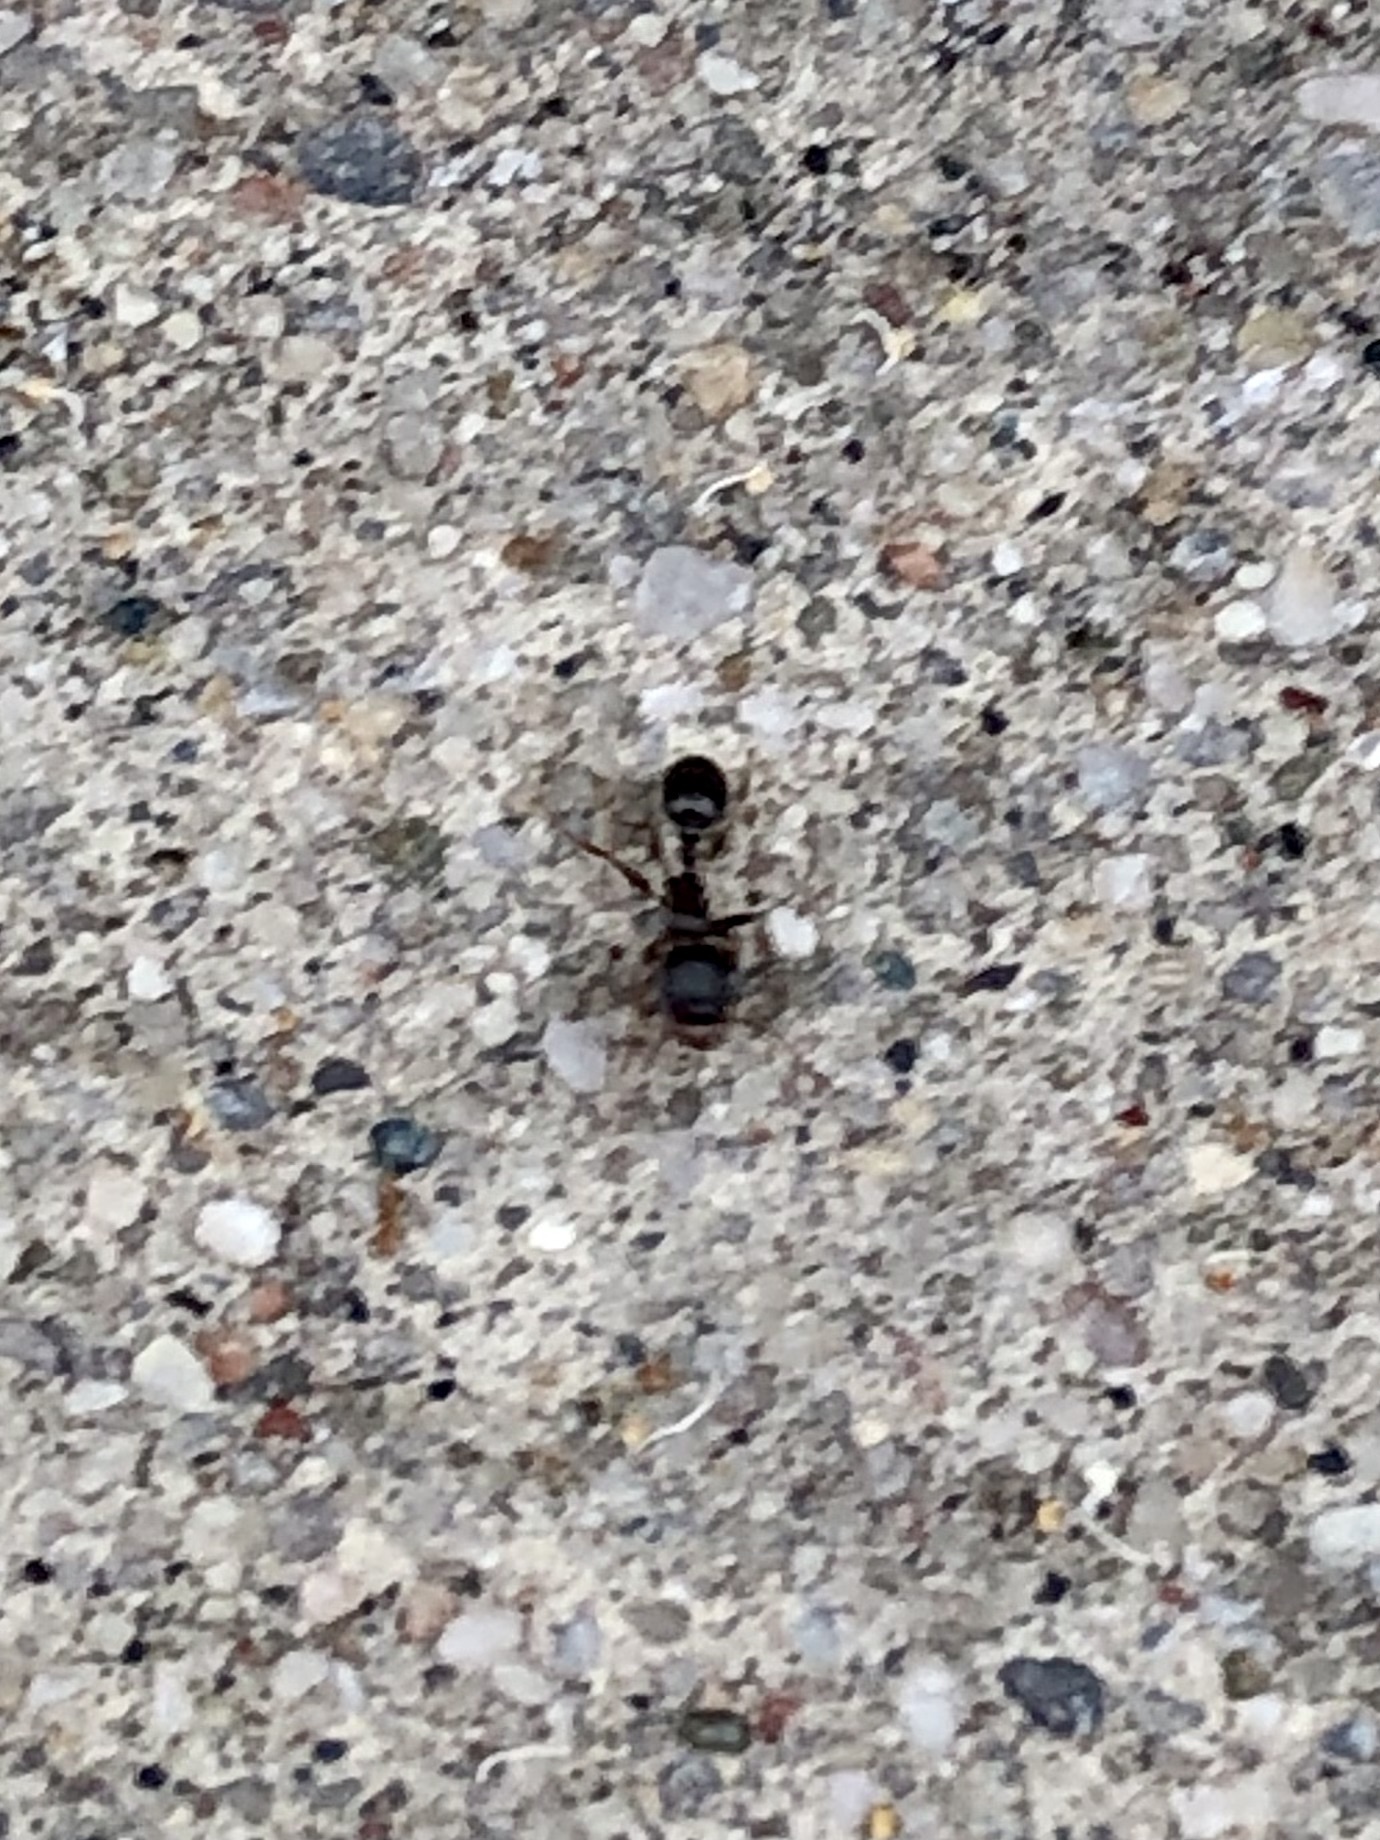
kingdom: Animalia
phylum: Arthropoda
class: Insecta
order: Hymenoptera
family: Formicidae
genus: Tetramorium
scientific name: Tetramorium immigrans
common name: Pavement ant
